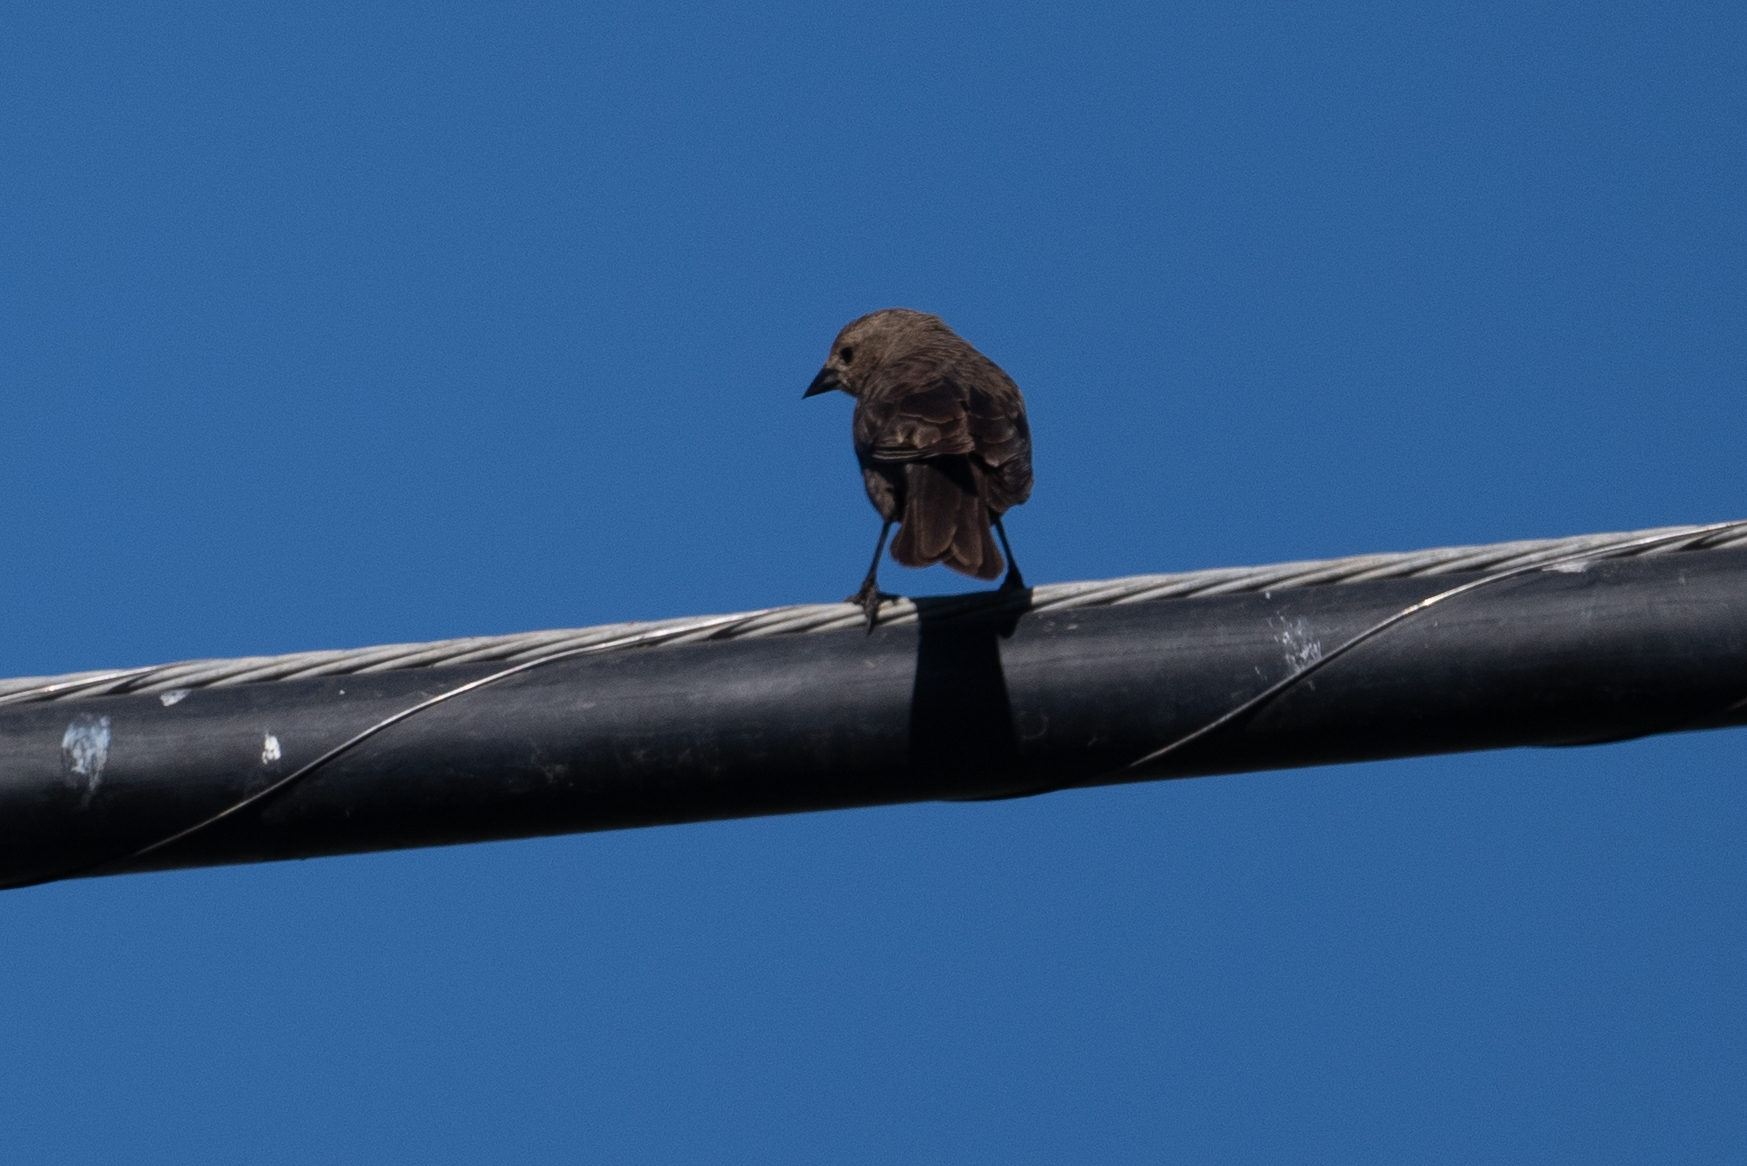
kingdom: Animalia
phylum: Chordata
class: Aves
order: Passeriformes
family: Icteridae
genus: Molothrus
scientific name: Molothrus ater
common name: Brown-headed cowbird
